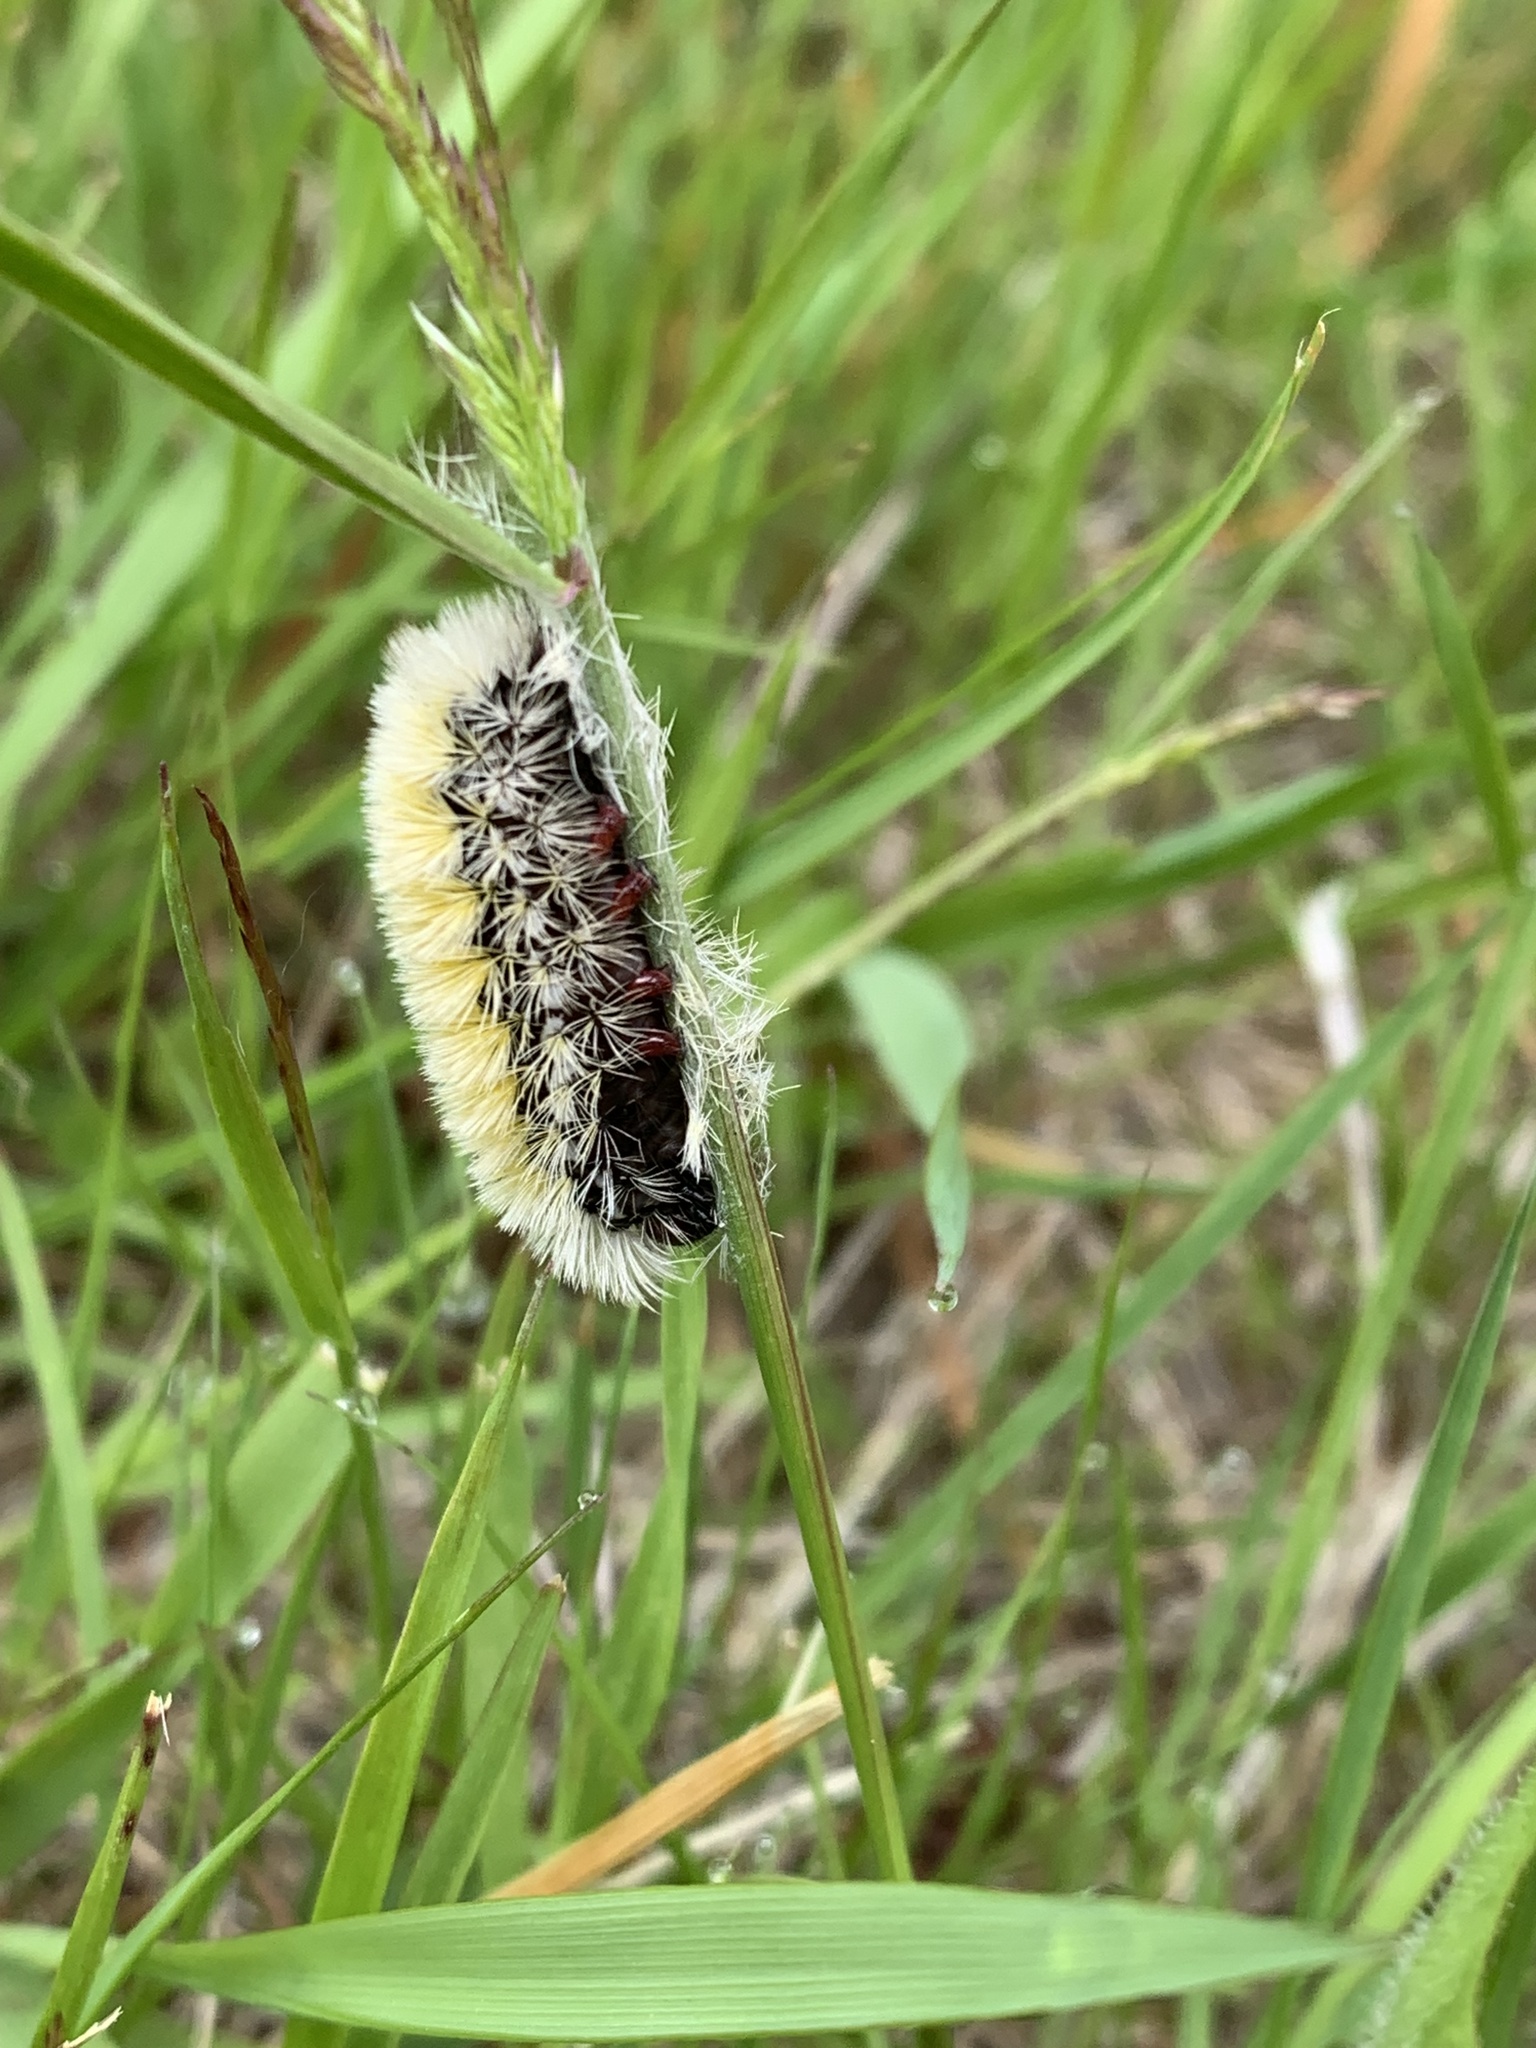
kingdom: Animalia
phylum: Arthropoda
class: Insecta
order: Lepidoptera
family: Erebidae
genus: Ctenucha
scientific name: Ctenucha virginica
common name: Virginia ctenucha moth
